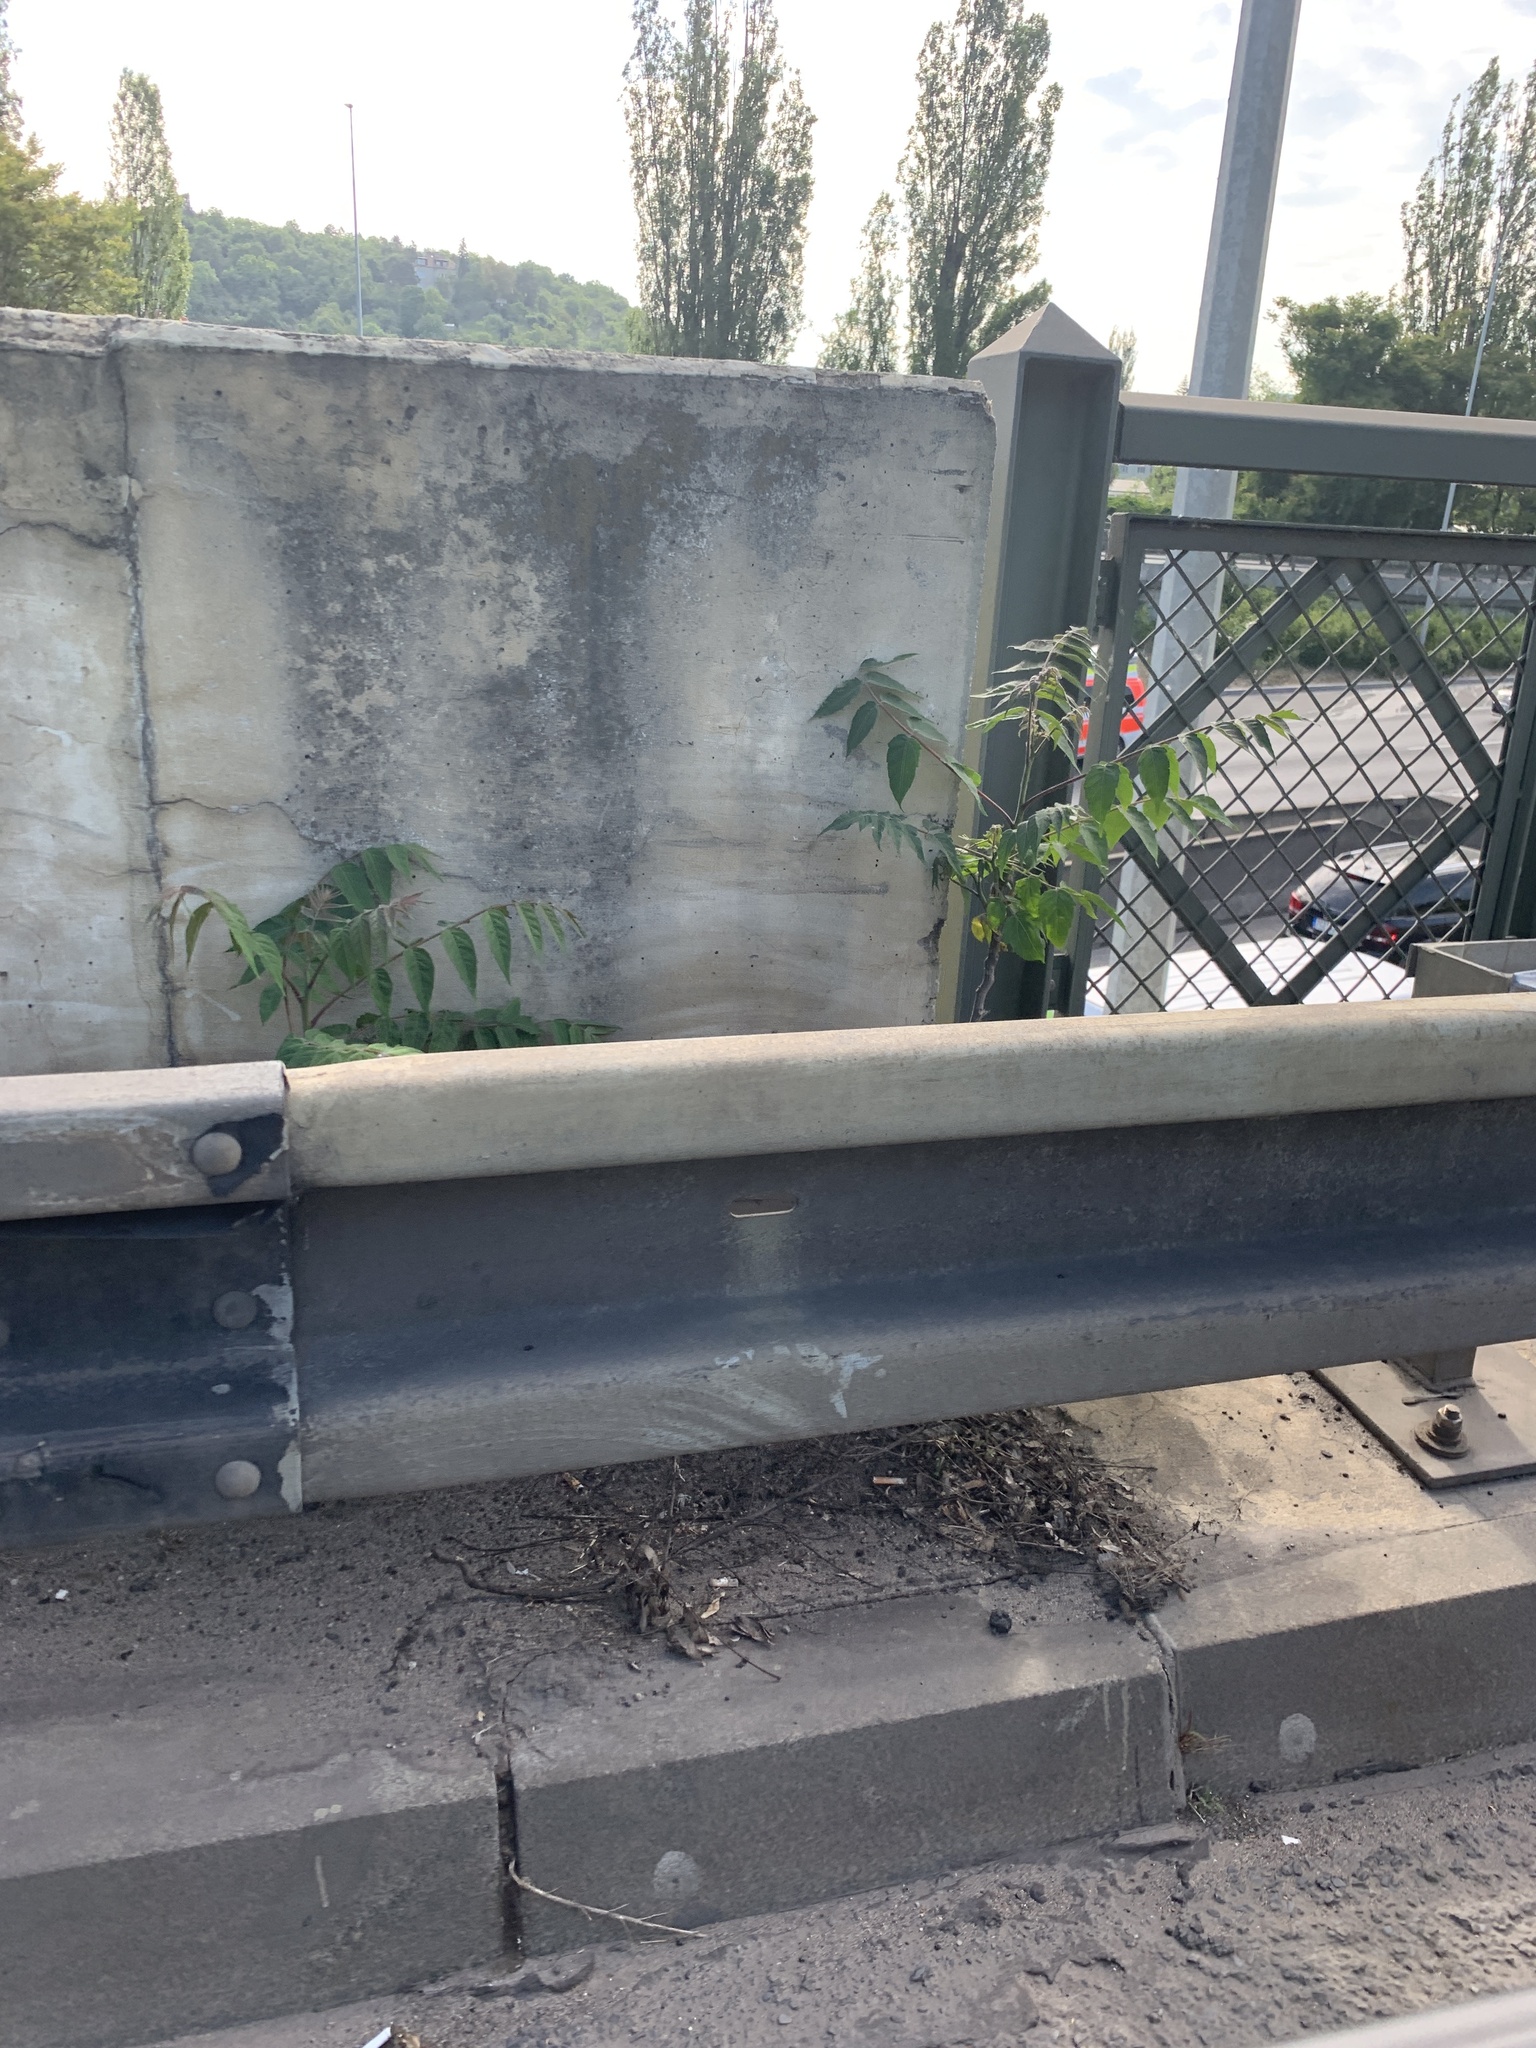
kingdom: Plantae
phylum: Tracheophyta
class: Magnoliopsida
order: Sapindales
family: Simaroubaceae
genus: Ailanthus
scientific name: Ailanthus altissima
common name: Tree-of-heaven
